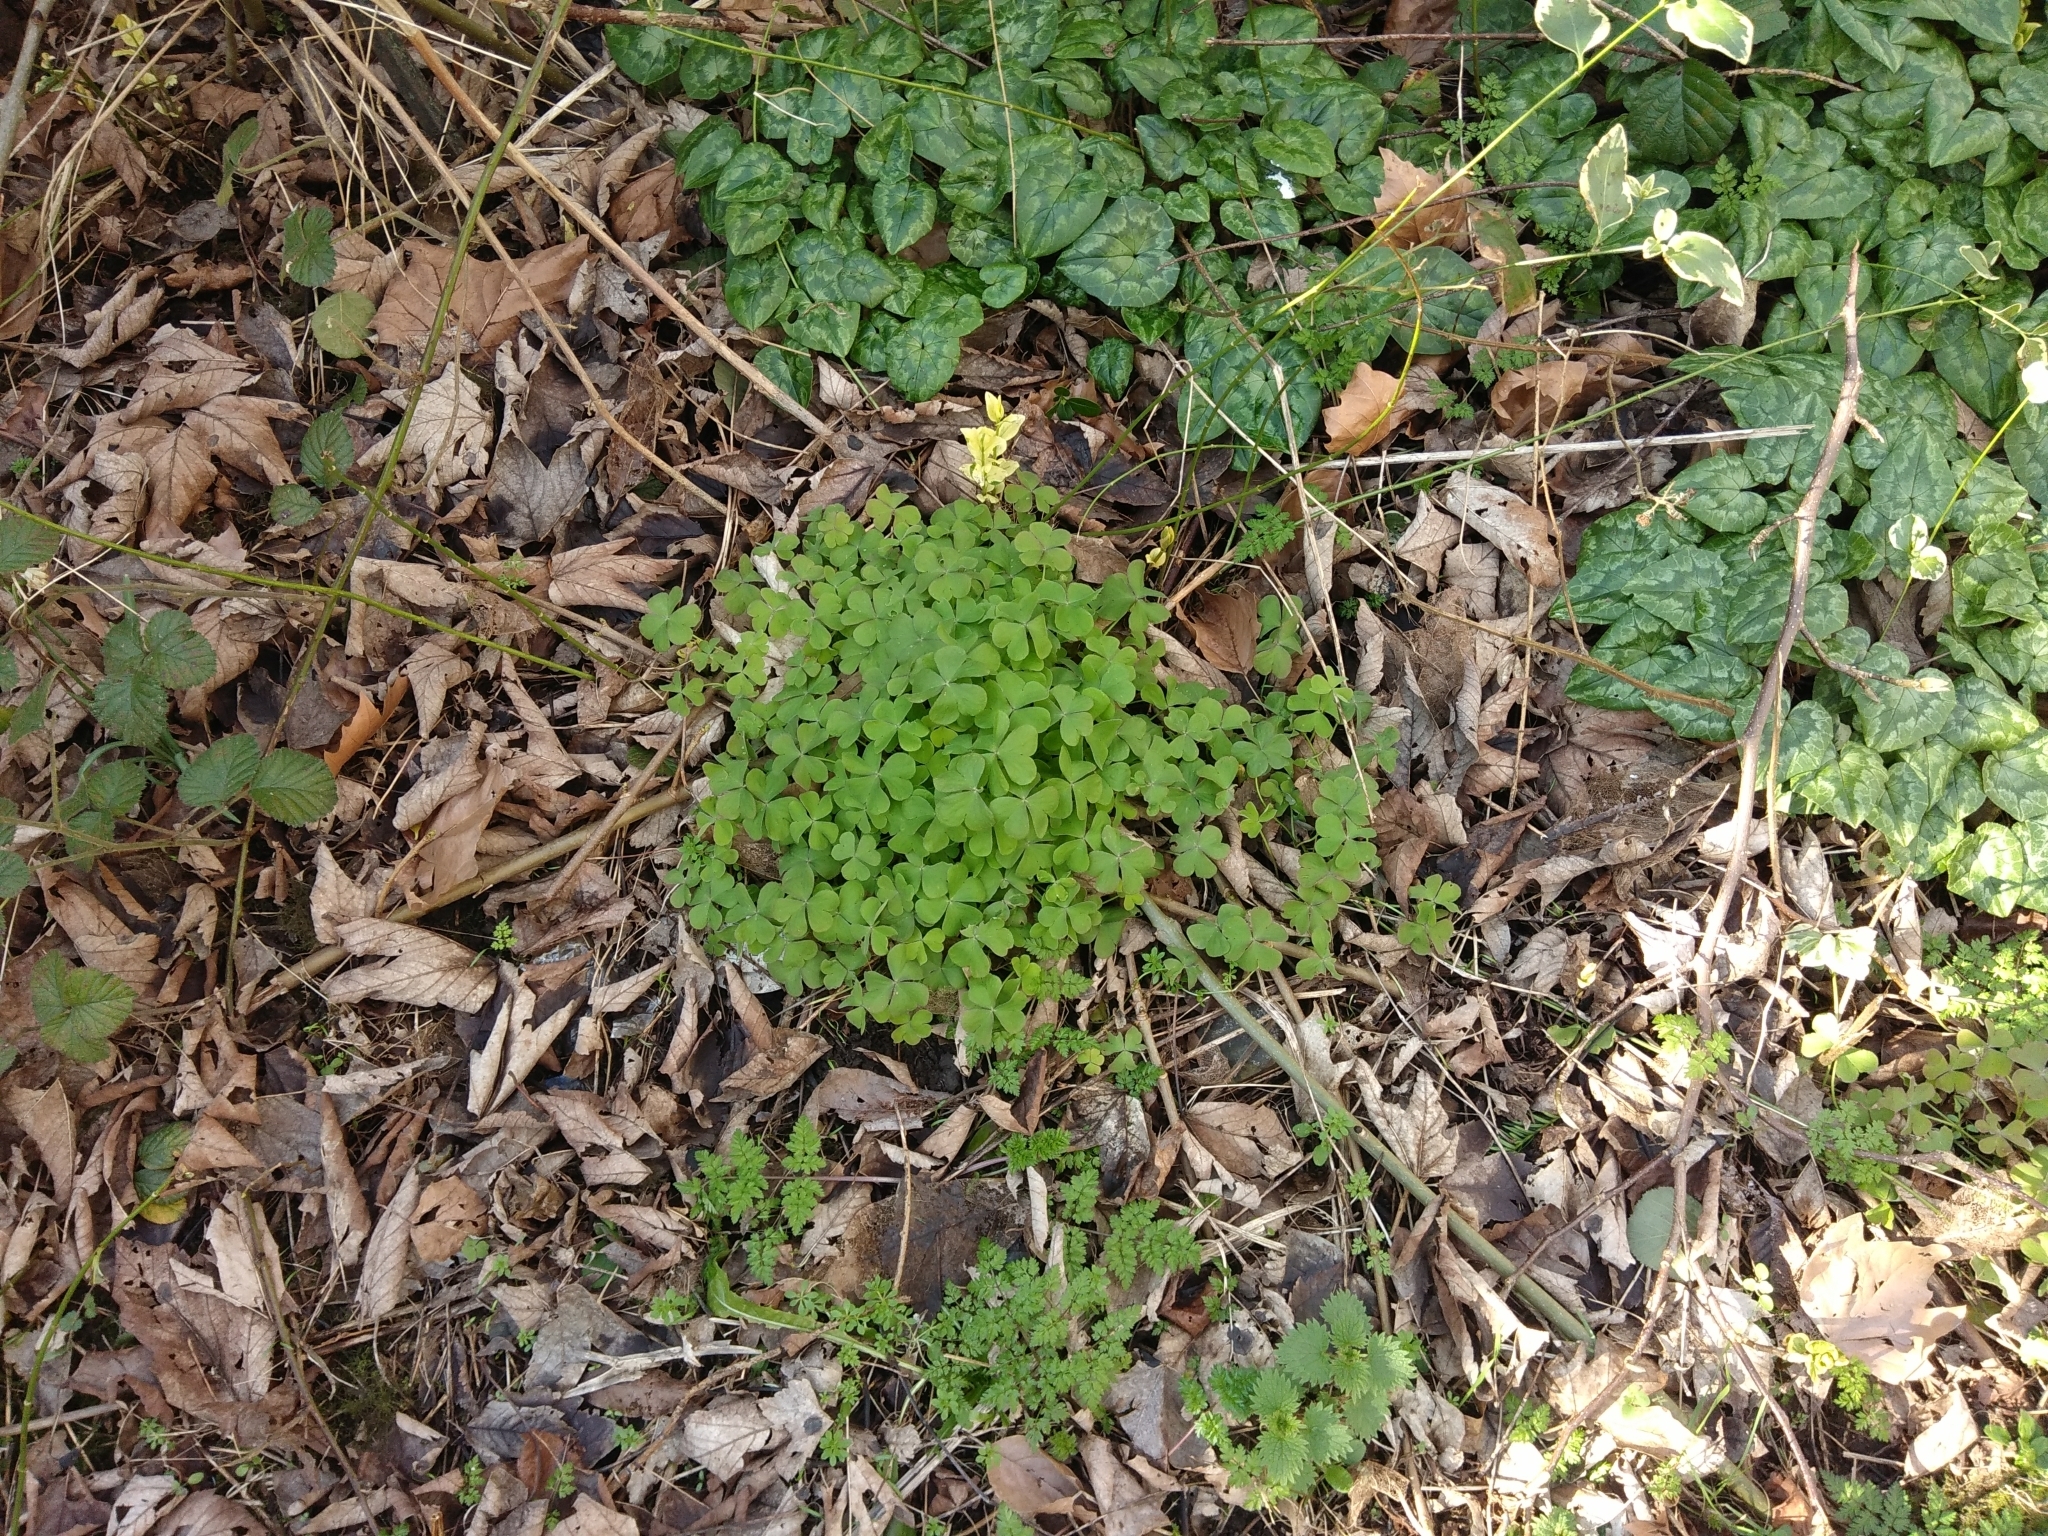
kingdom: Plantae
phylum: Tracheophyta
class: Magnoliopsida
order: Oxalidales
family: Oxalidaceae
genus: Oxalis
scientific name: Oxalis articulata
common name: Pink-sorrel
